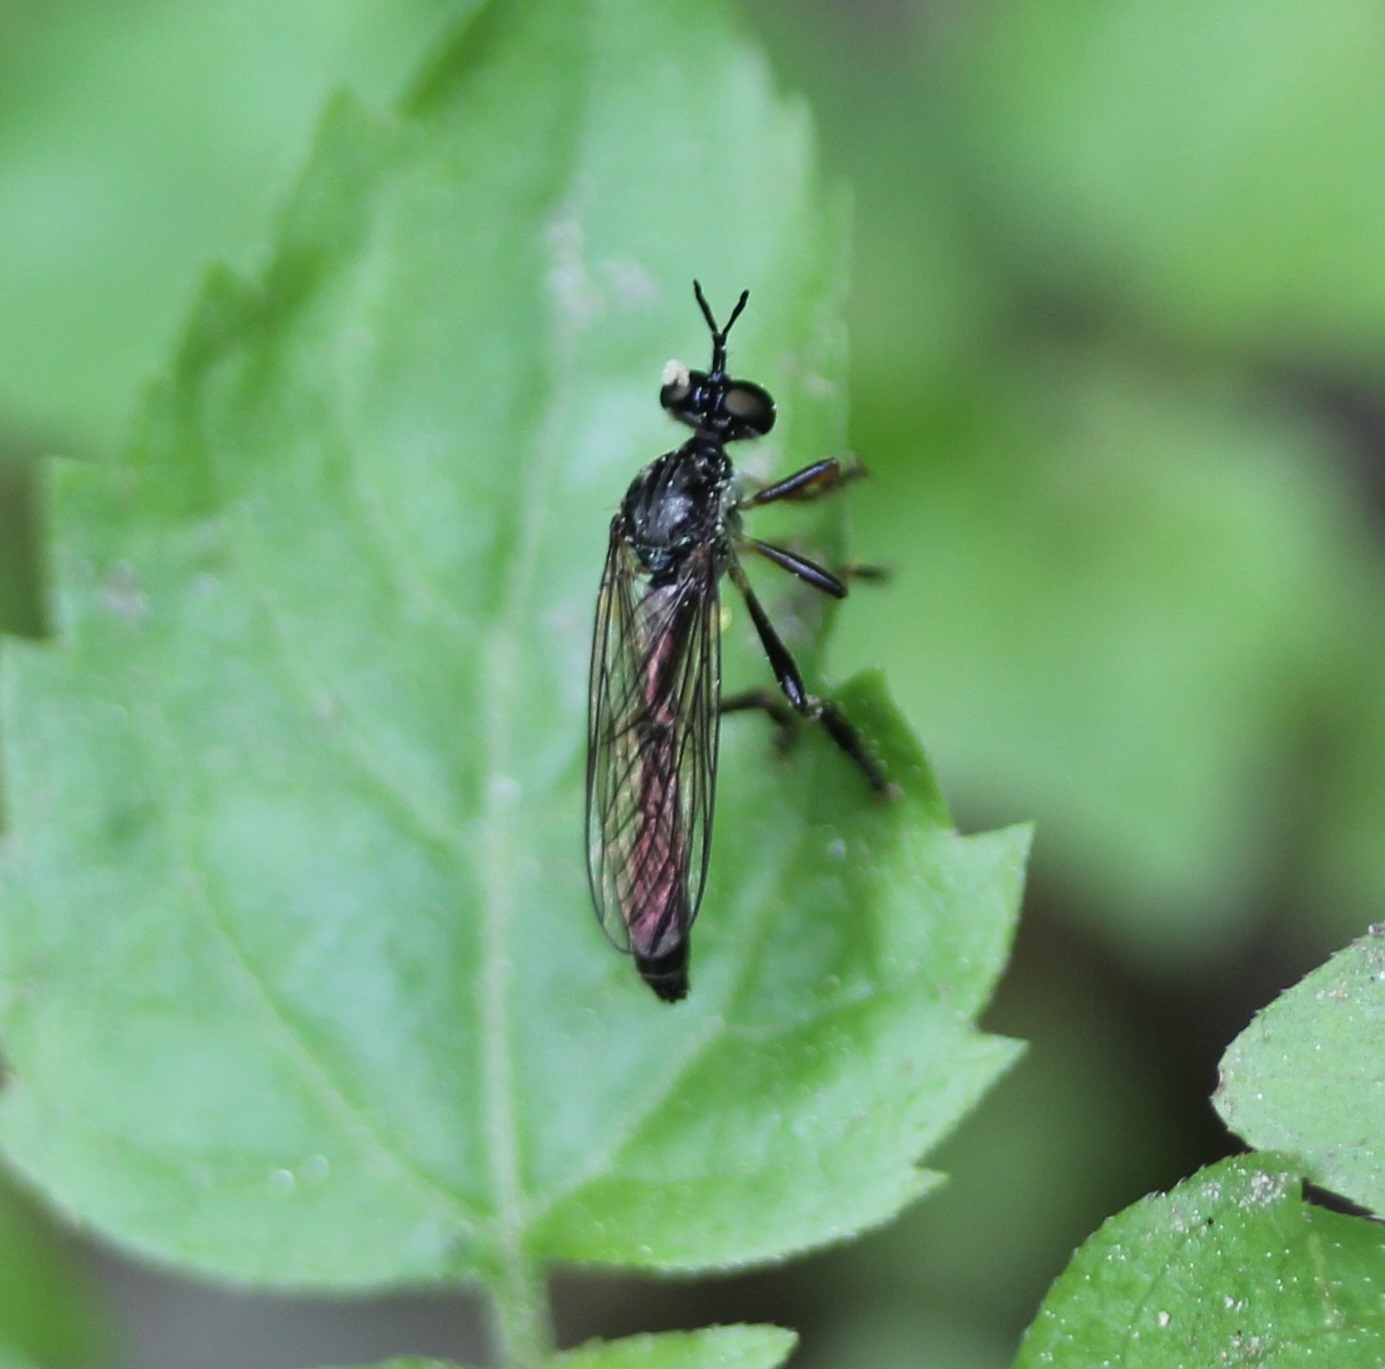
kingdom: Animalia
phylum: Arthropoda
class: Insecta
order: Diptera
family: Asilidae
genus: Dioctria
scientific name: Dioctria hyalipennis
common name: Stripe-legged robberfly
